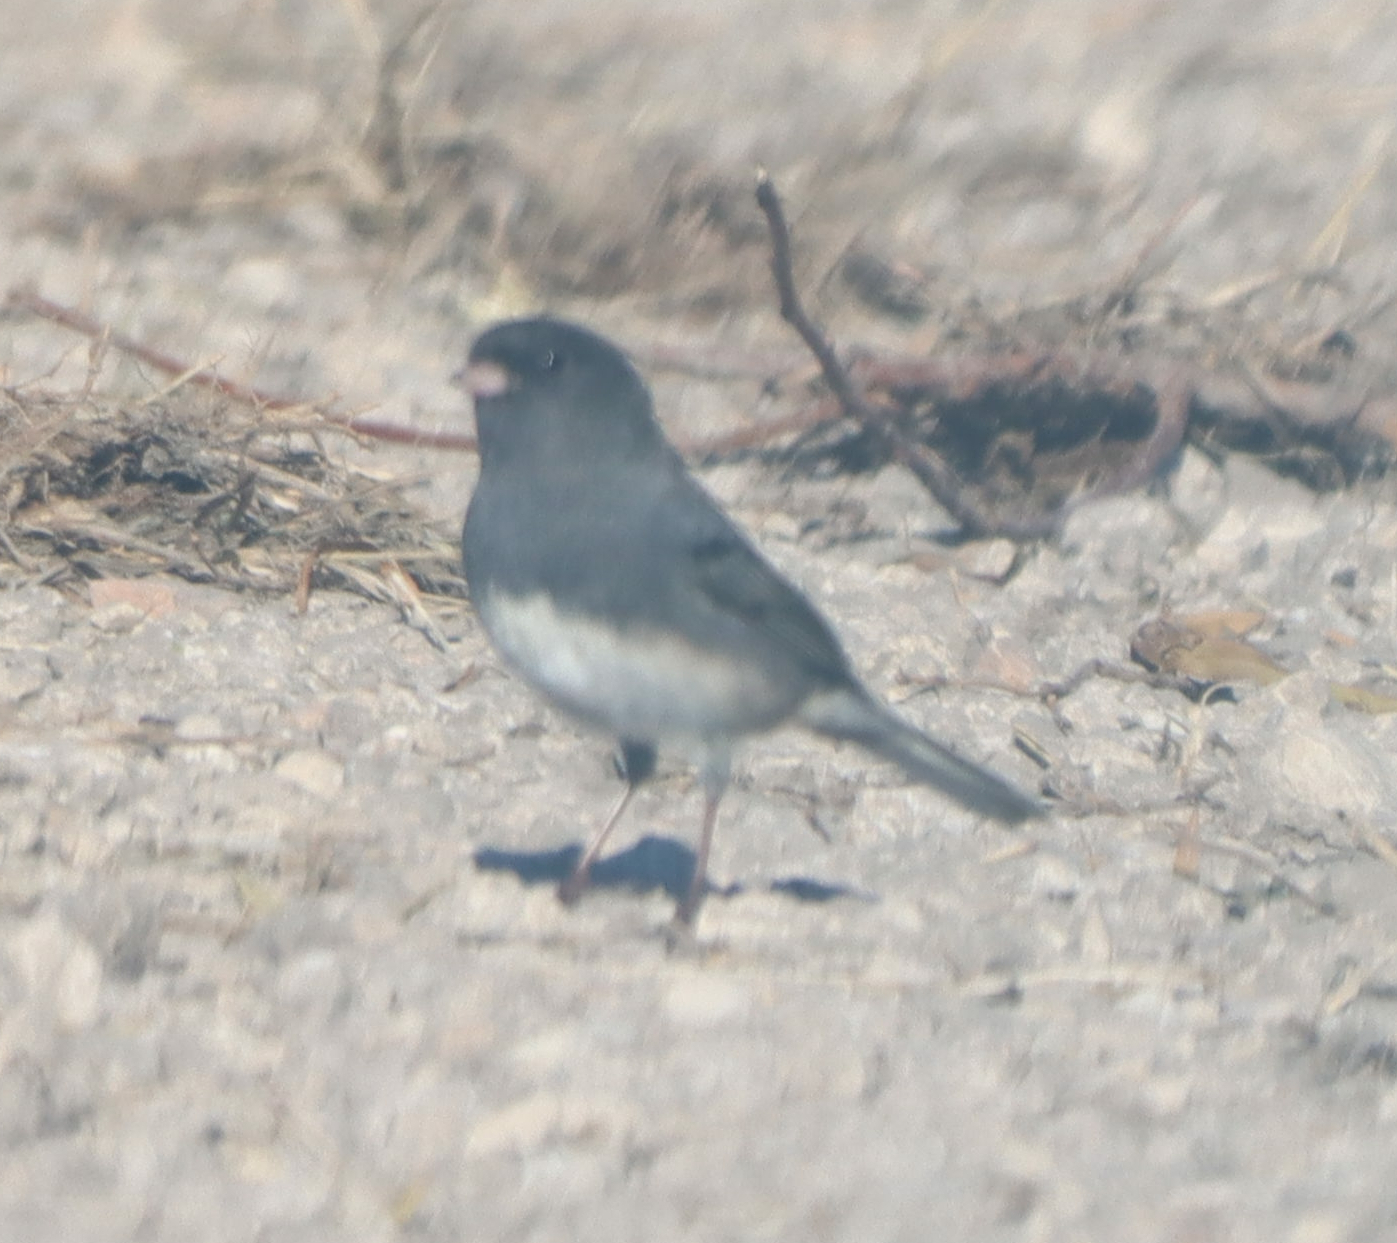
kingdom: Animalia
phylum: Chordata
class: Aves
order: Passeriformes
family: Passerellidae
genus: Junco
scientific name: Junco hyemalis
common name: Dark-eyed junco
